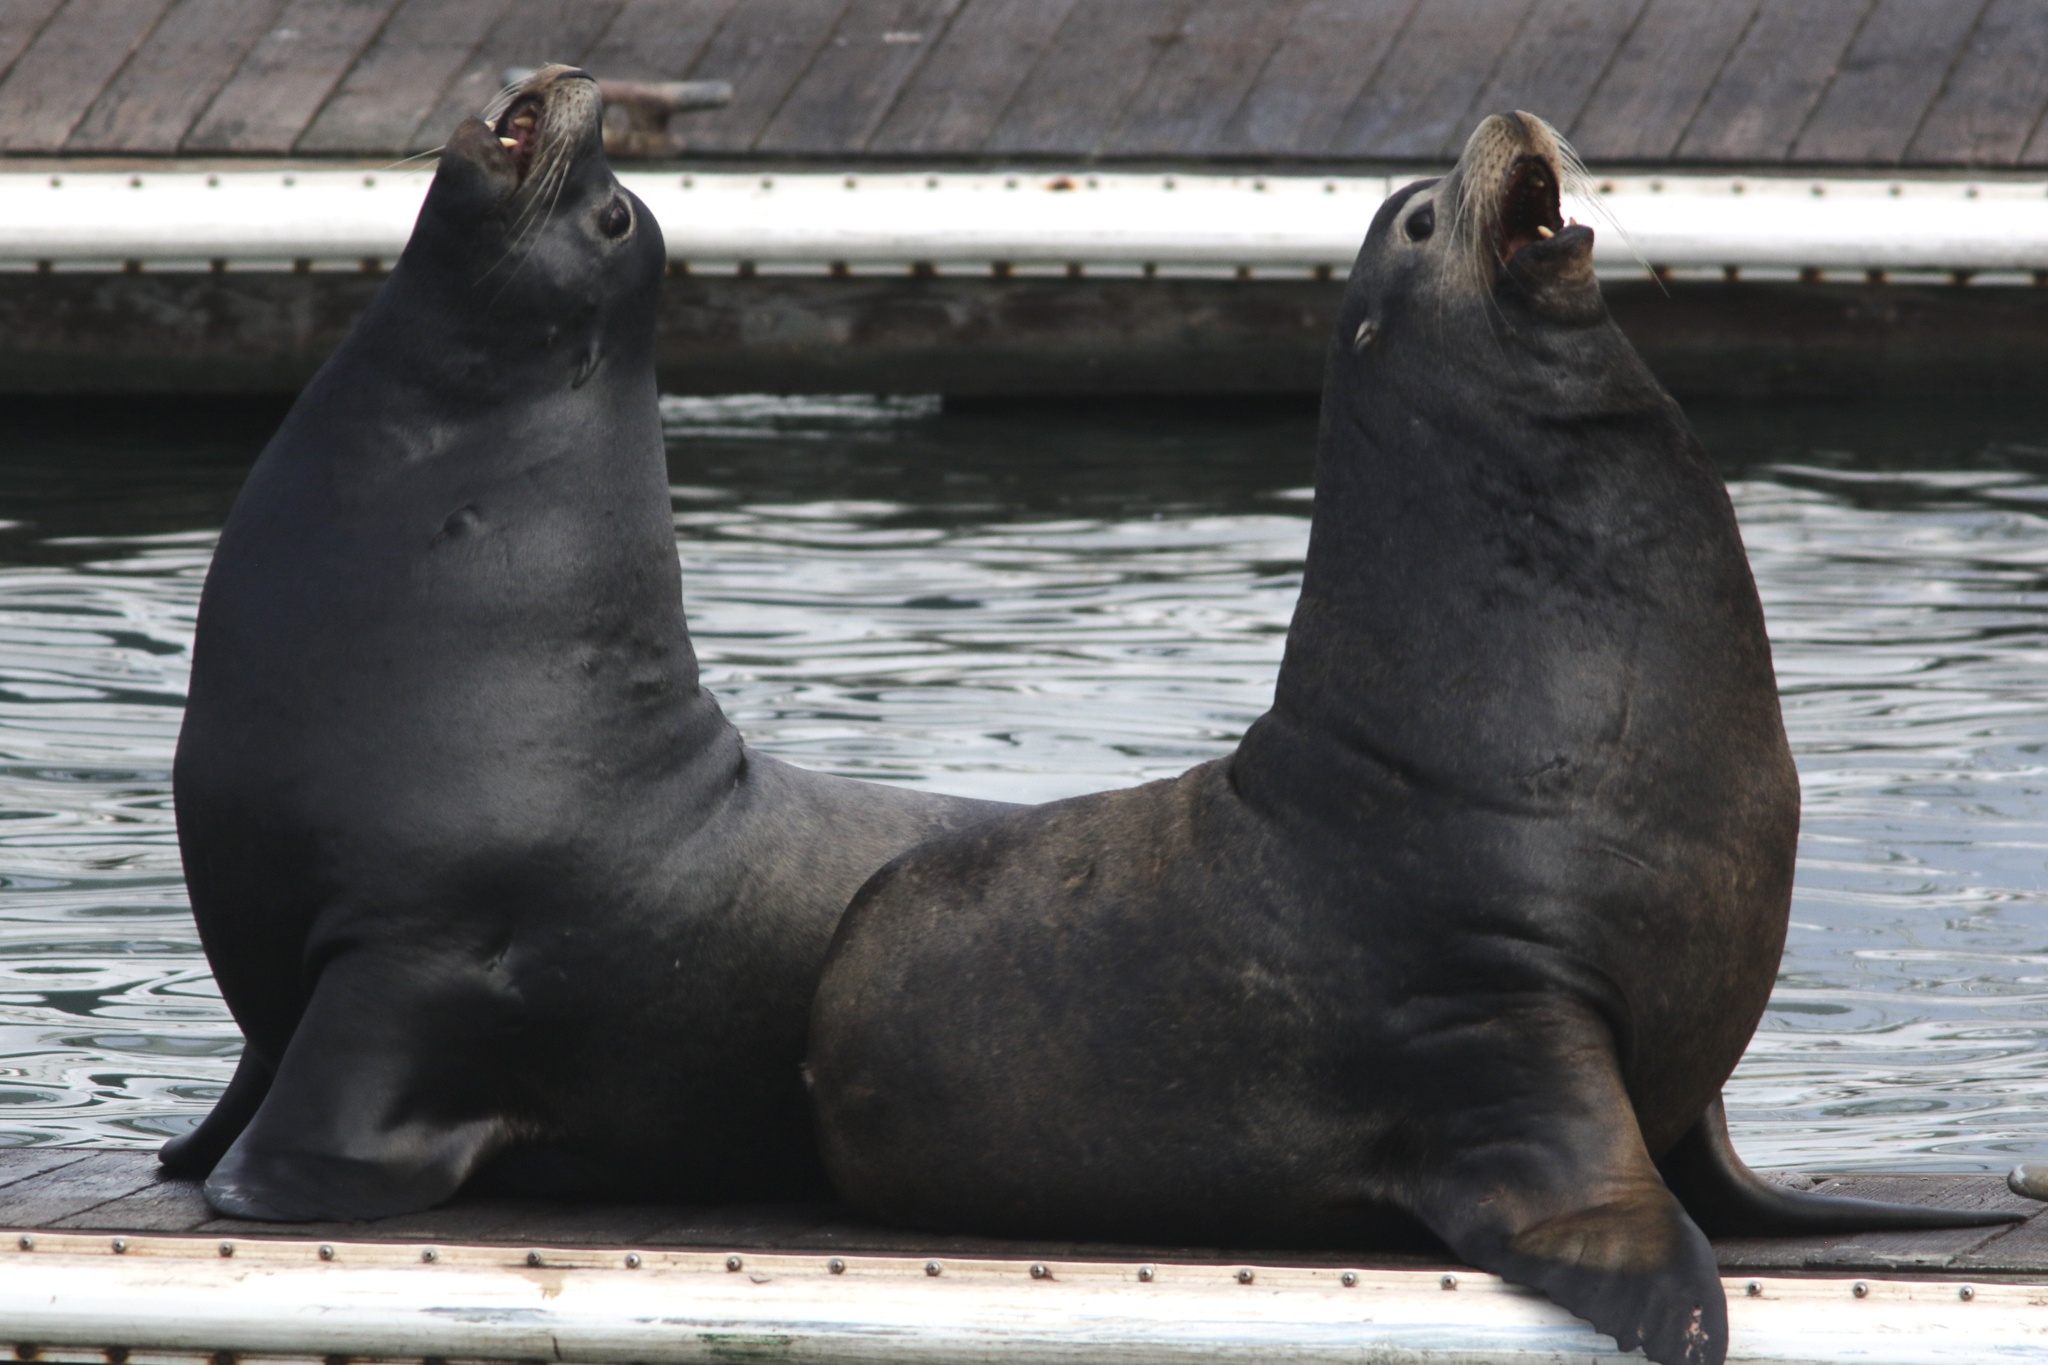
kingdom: Animalia
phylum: Chordata
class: Mammalia
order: Carnivora
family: Otariidae
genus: Zalophus
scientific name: Zalophus californianus
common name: California sea lion
